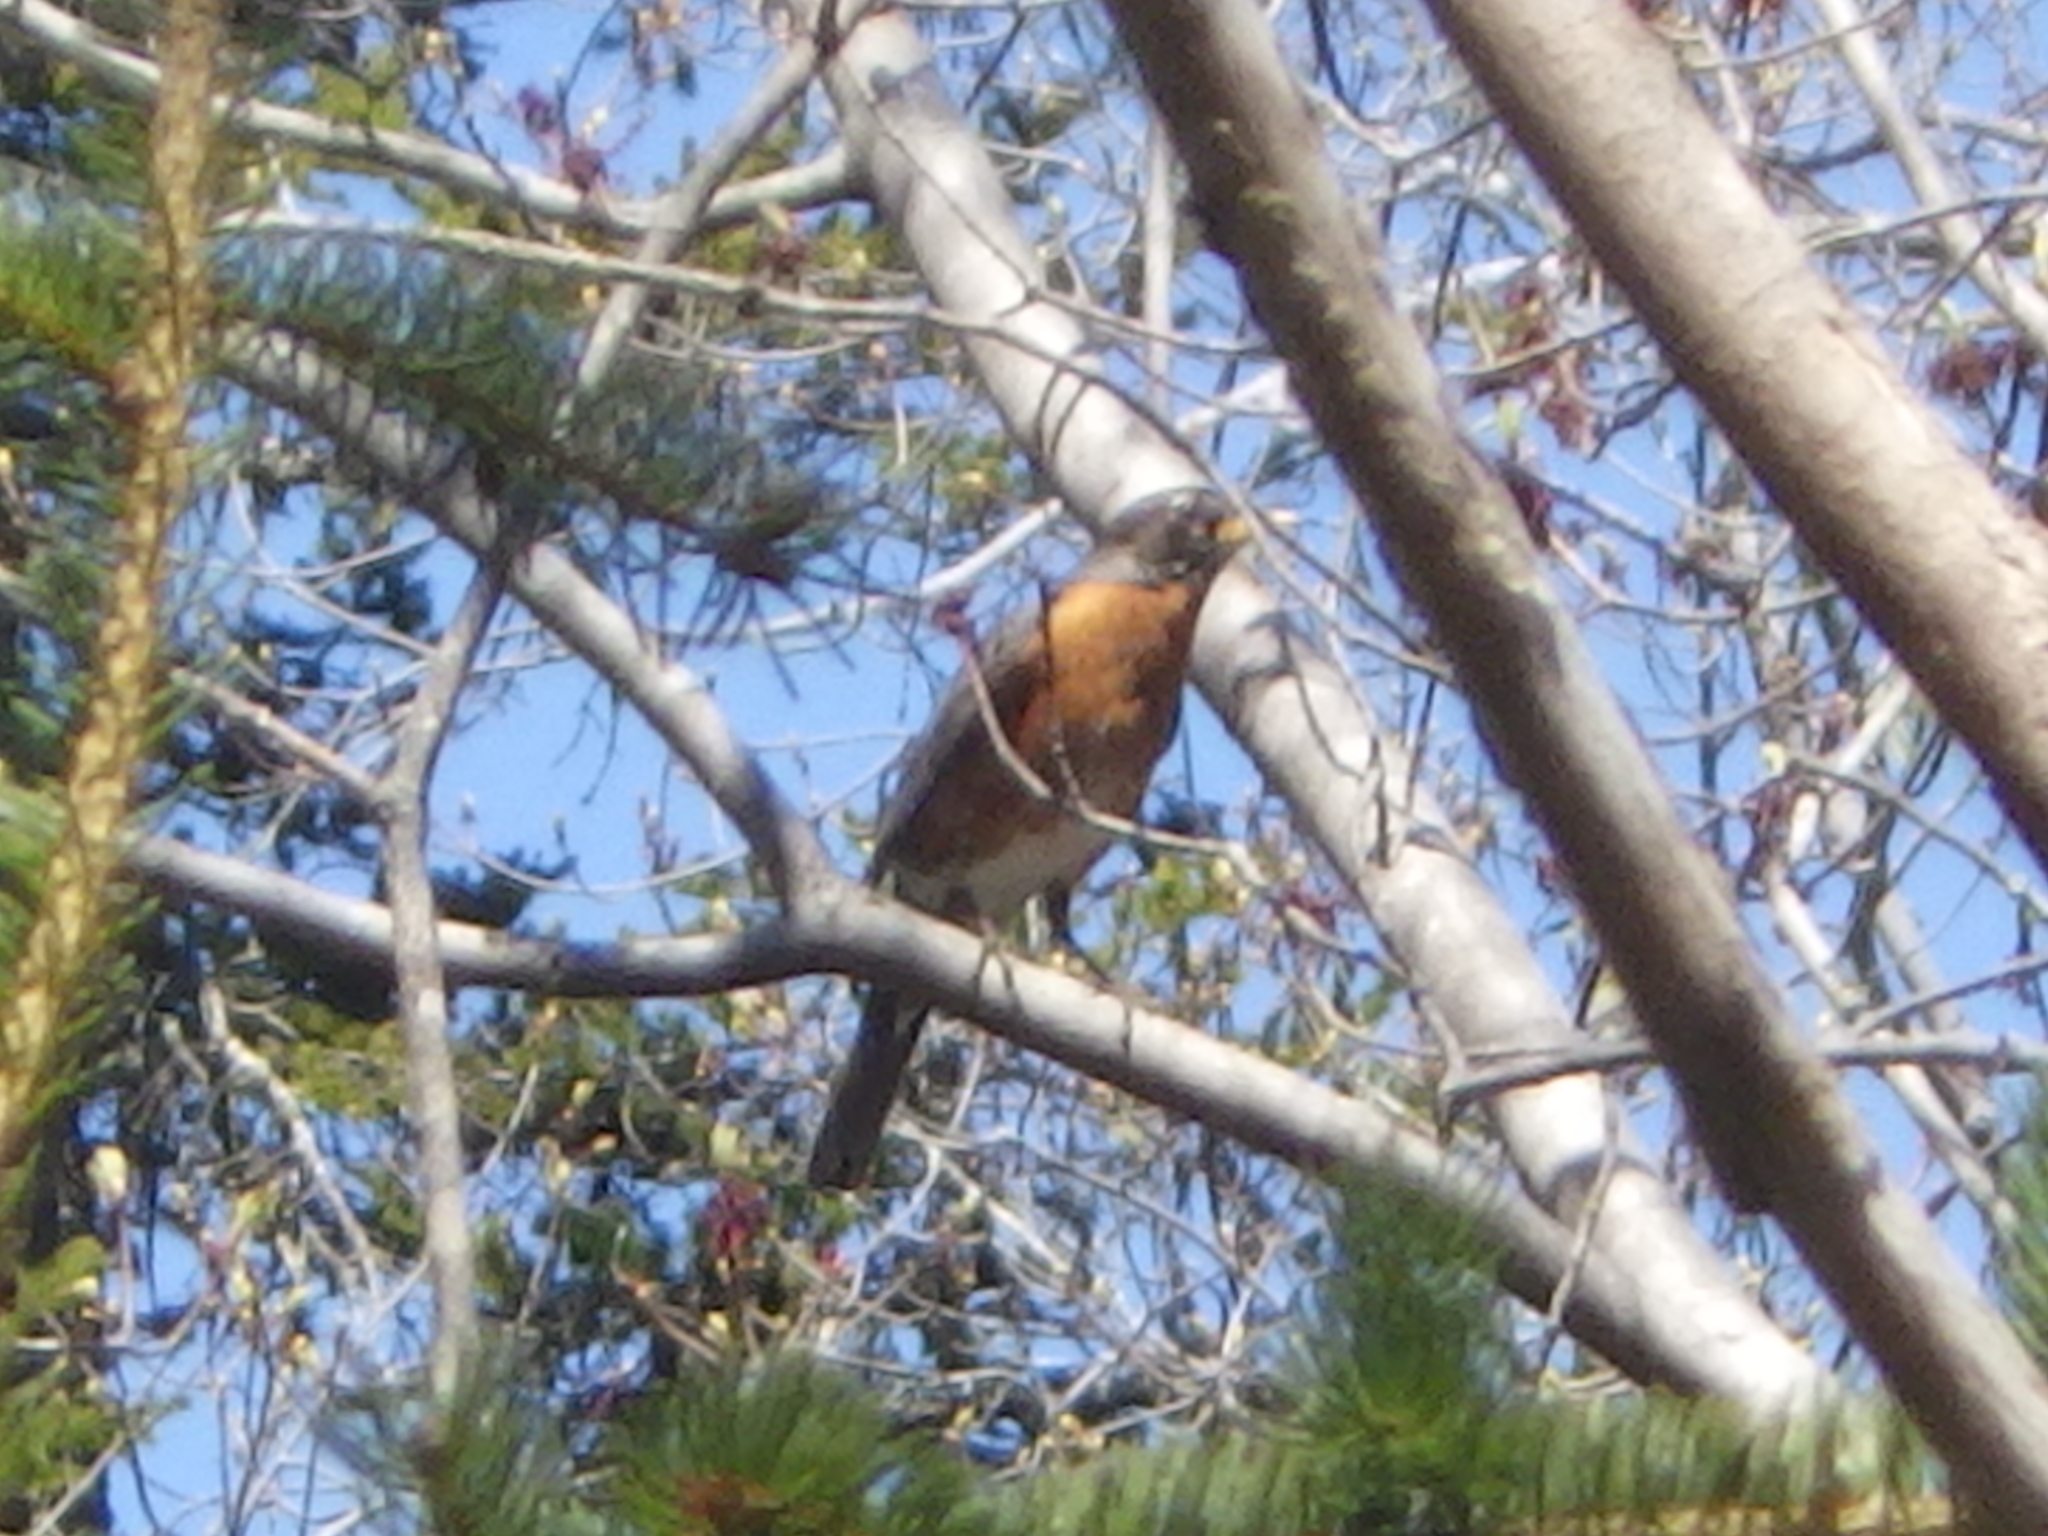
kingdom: Animalia
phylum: Chordata
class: Aves
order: Passeriformes
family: Turdidae
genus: Turdus
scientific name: Turdus migratorius
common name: American robin
